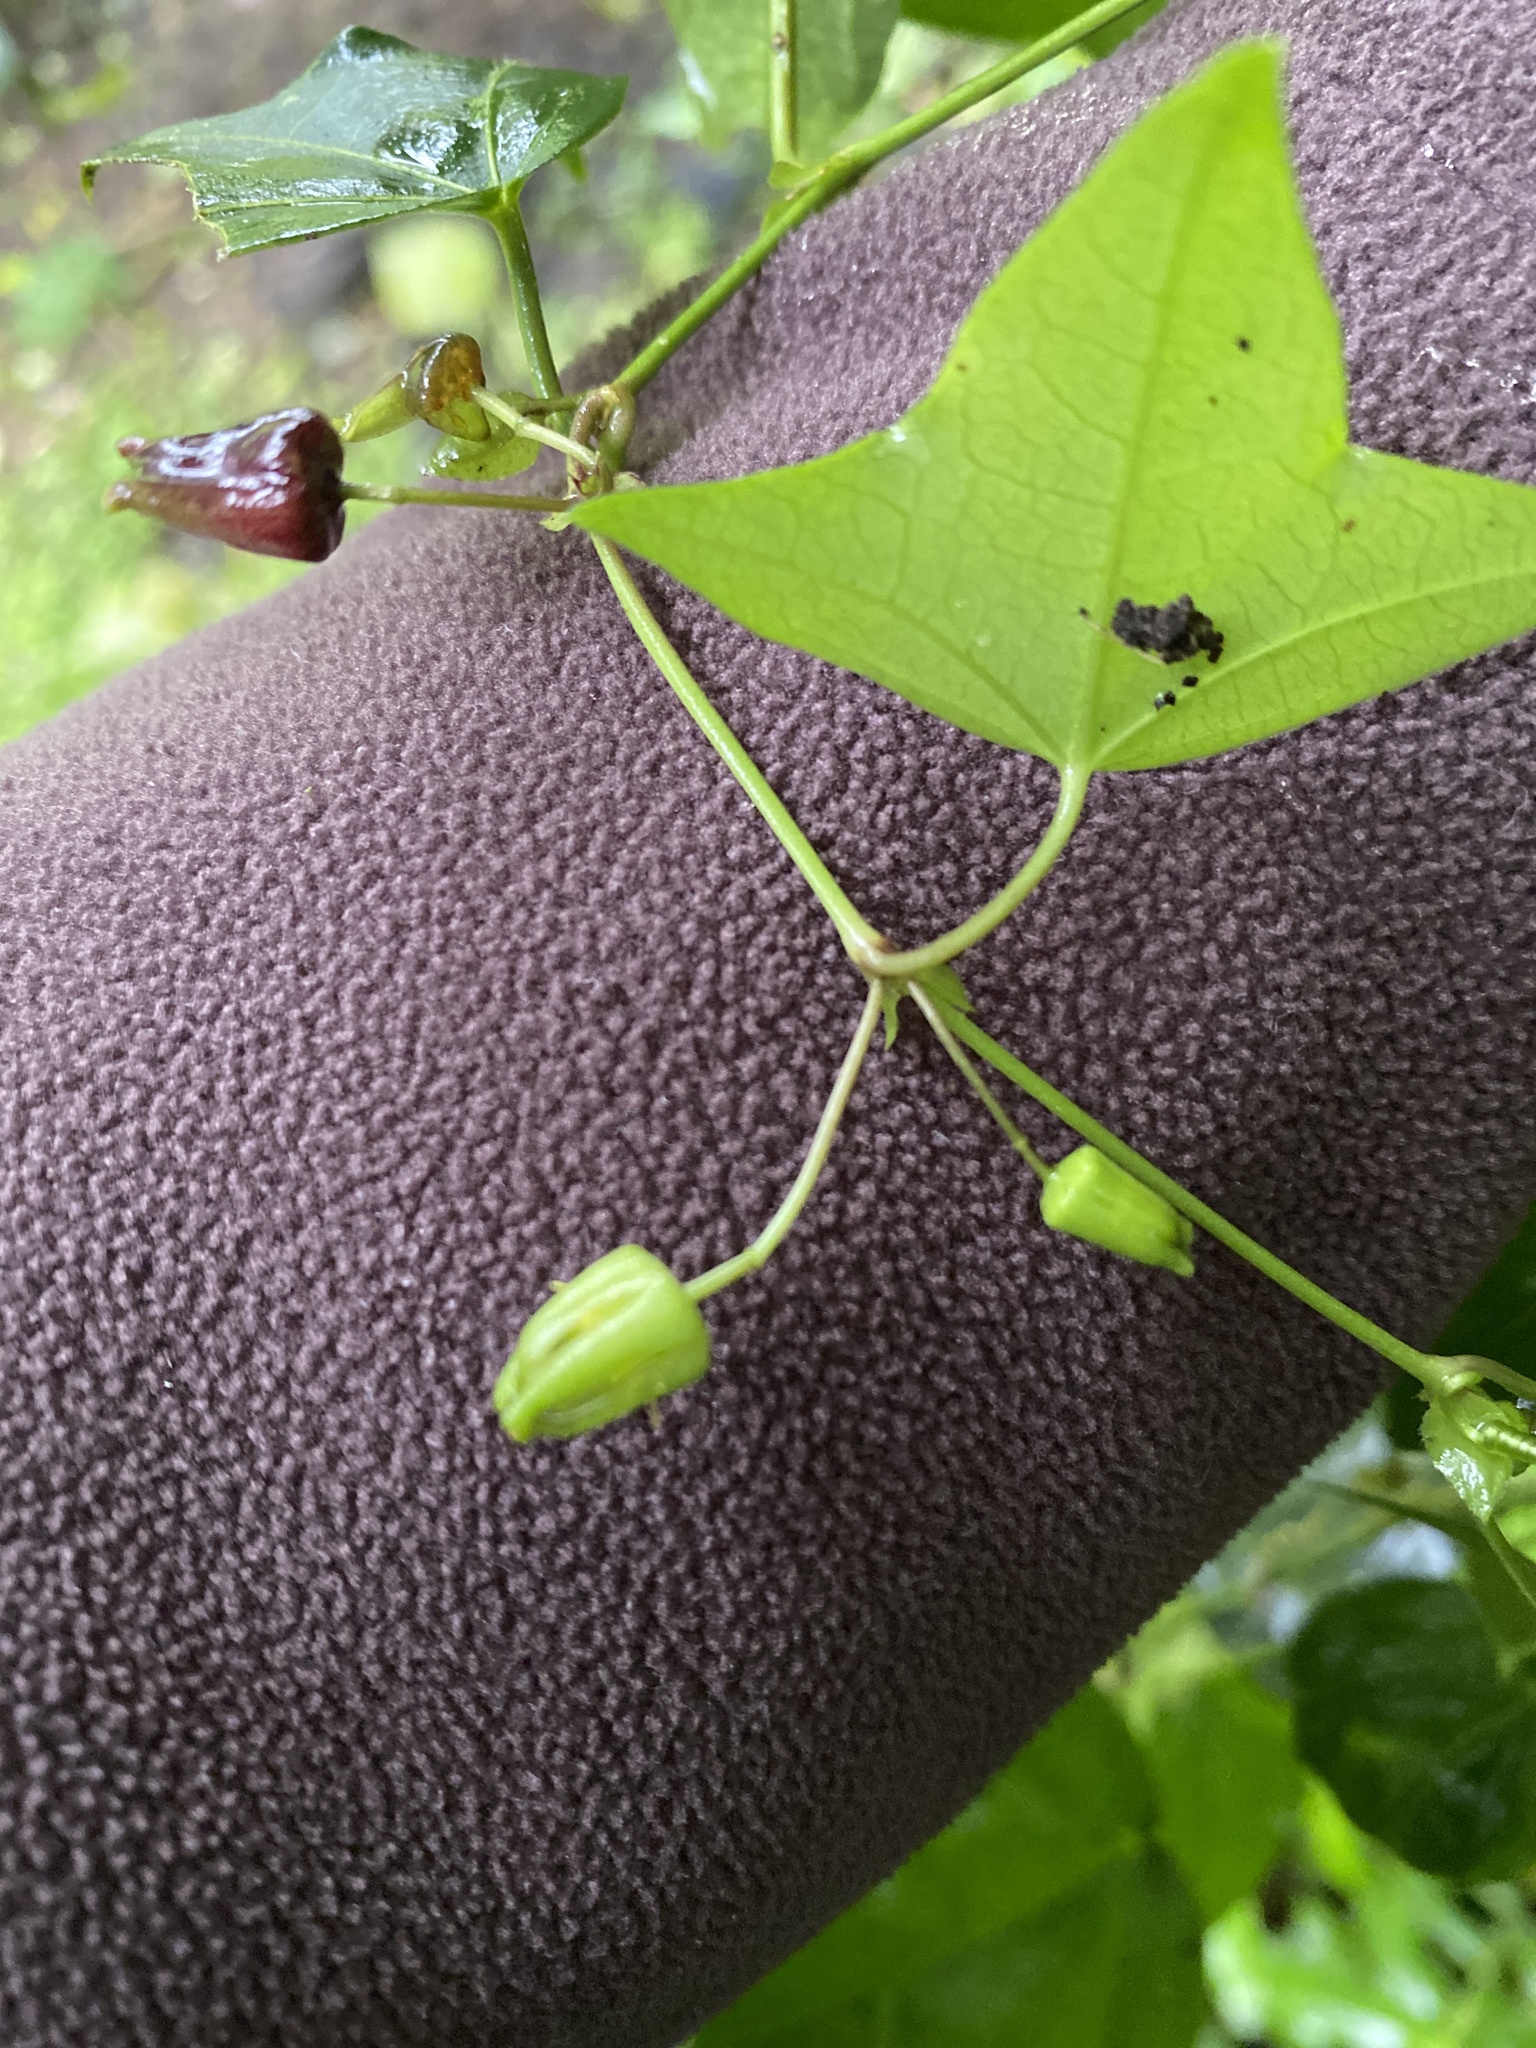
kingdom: Plantae
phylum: Tracheophyta
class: Magnoliopsida
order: Malpighiales
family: Passifloraceae
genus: Passiflora
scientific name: Passiflora eglandulosa
